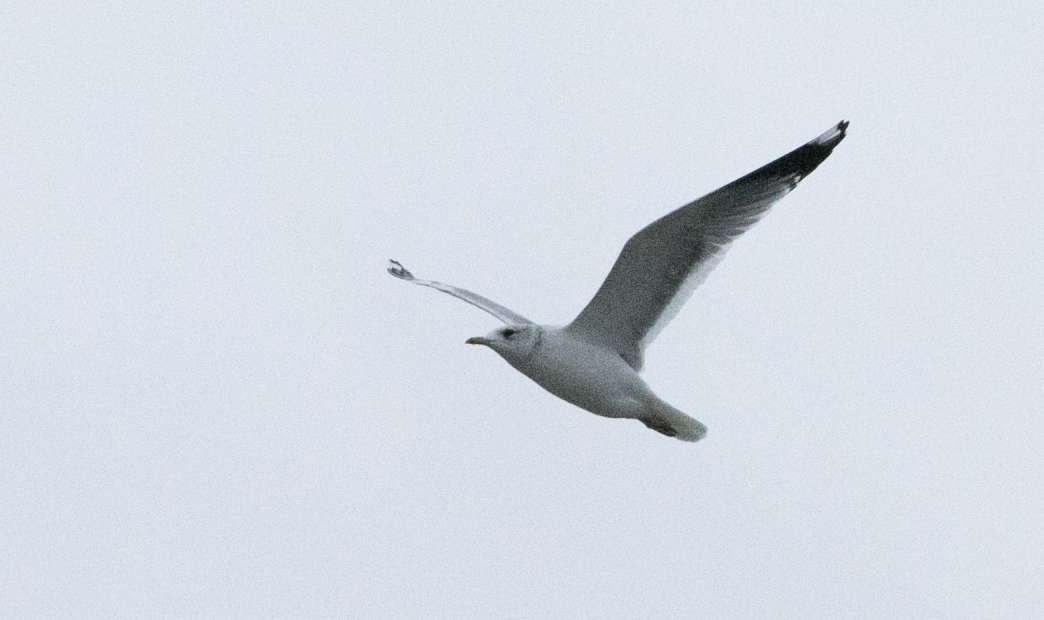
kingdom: Animalia
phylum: Chordata
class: Aves
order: Charadriiformes
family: Laridae
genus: Larus
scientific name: Larus canus
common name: Mew gull
